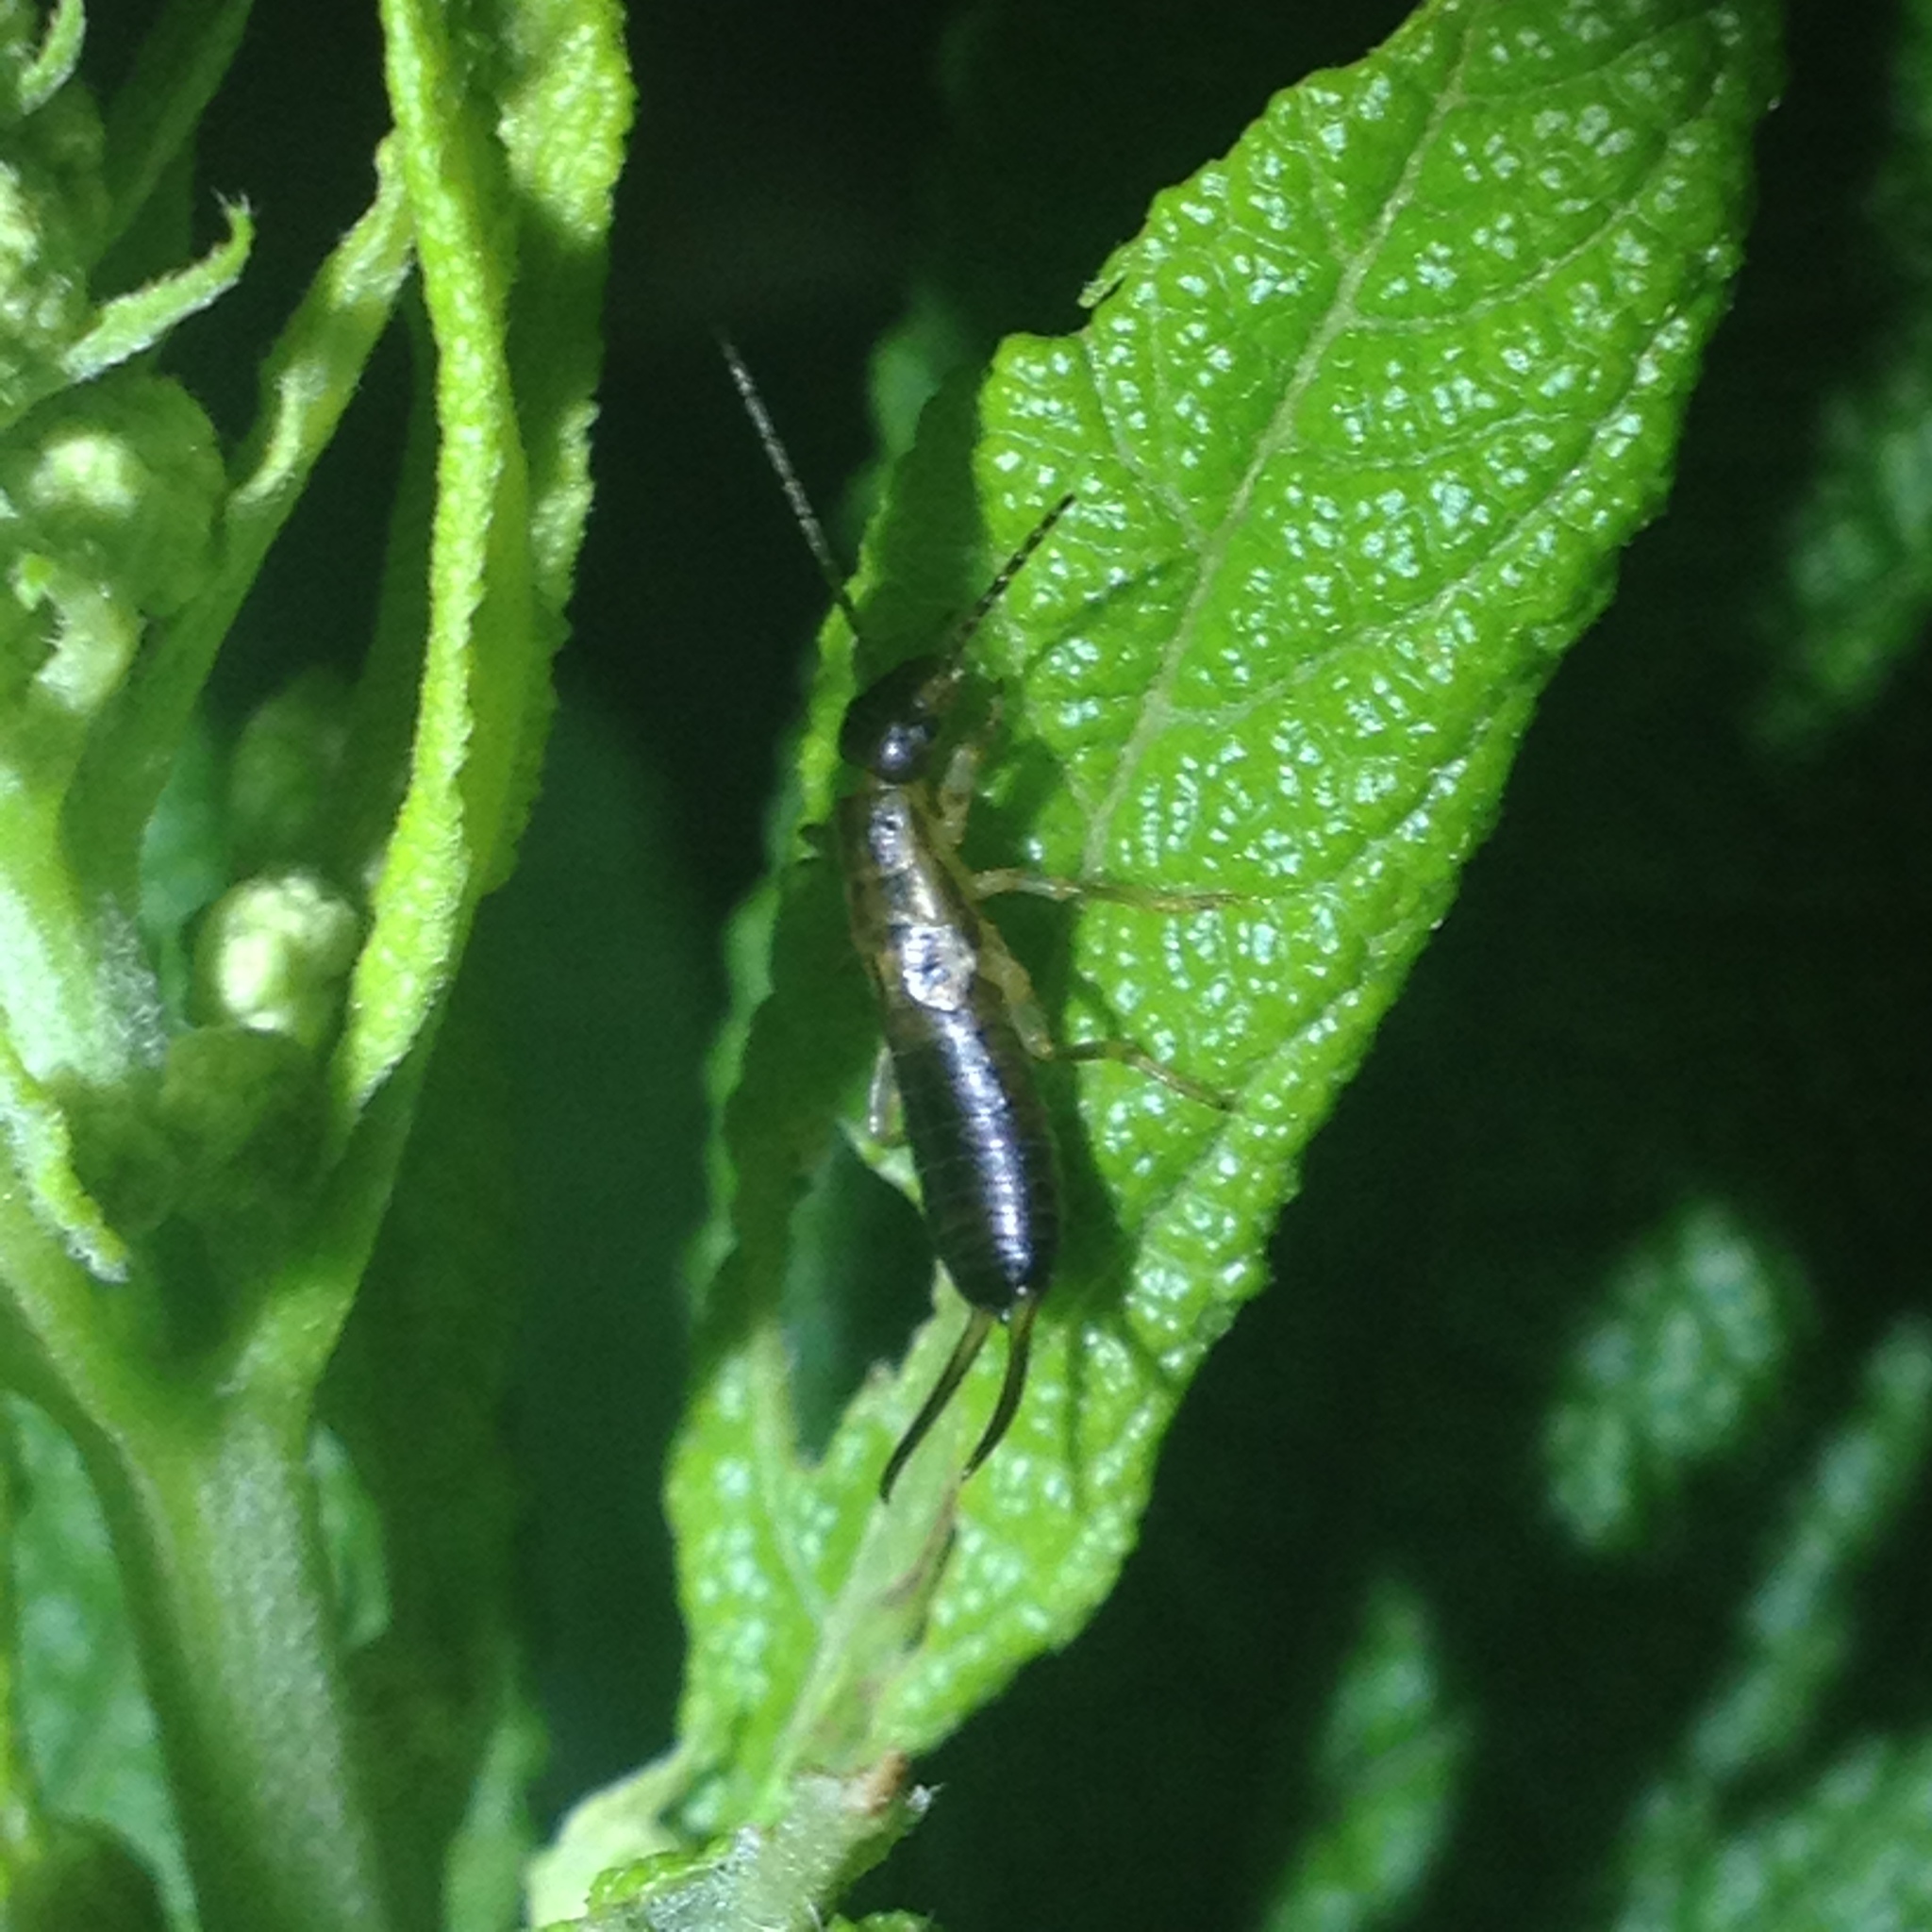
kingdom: Animalia
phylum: Arthropoda
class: Insecta
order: Dermaptera
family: Forficulidae
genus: Forficula
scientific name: Forficula
